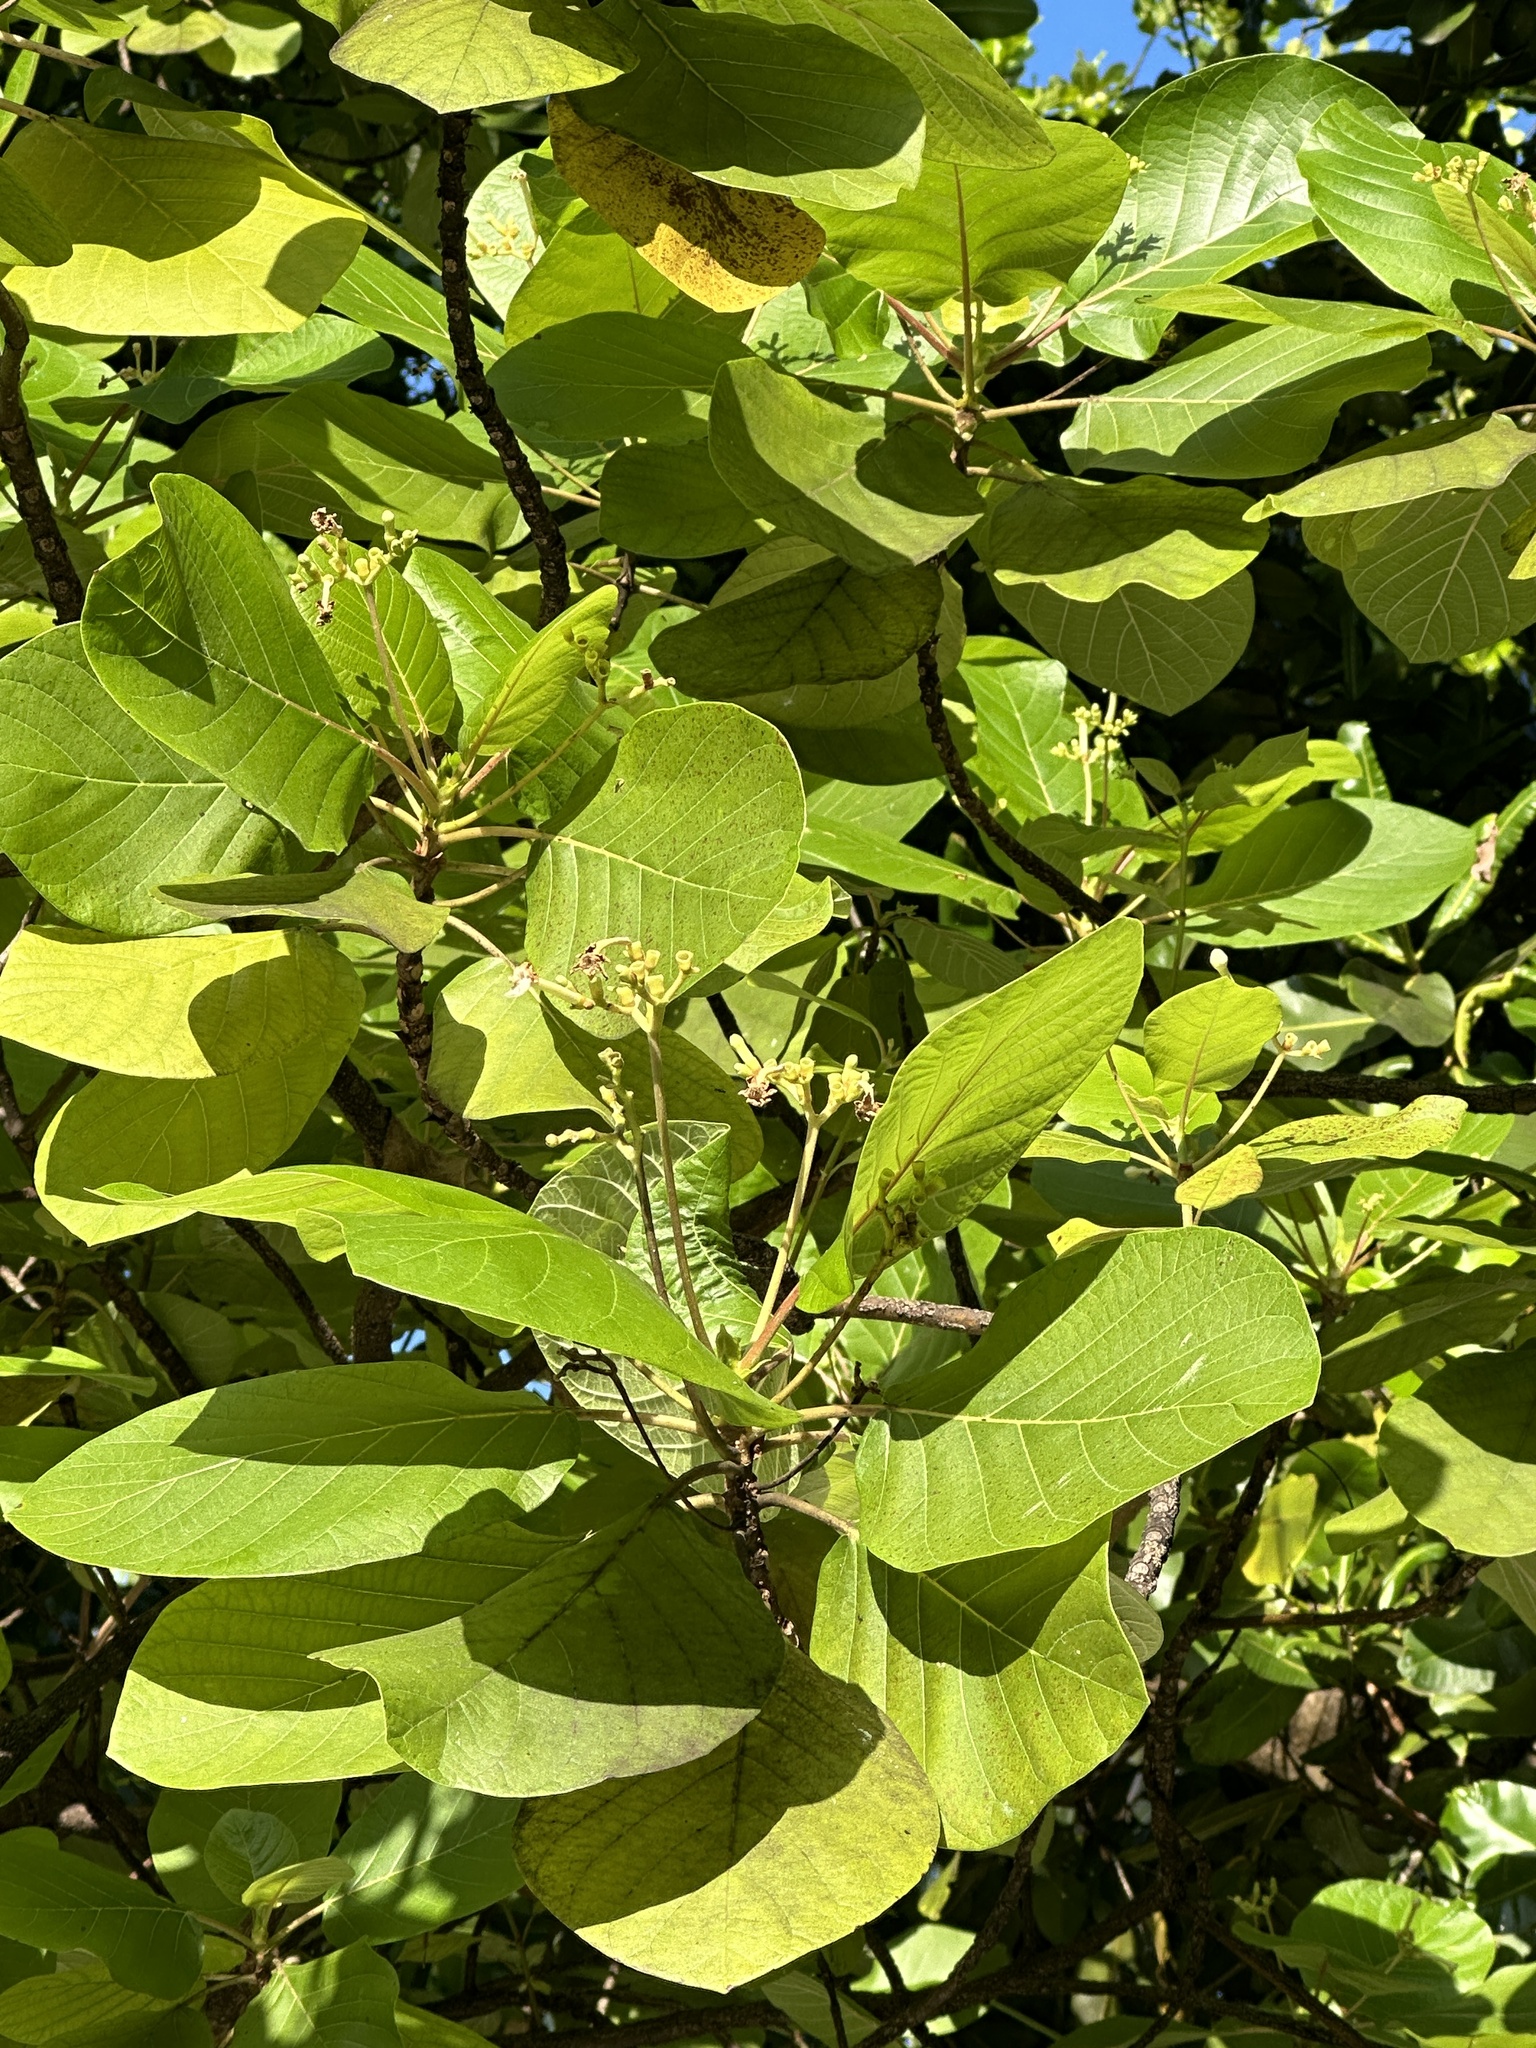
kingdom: Plantae
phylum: Tracheophyta
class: Magnoliopsida
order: Gentianales
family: Rubiaceae
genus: Guettarda
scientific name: Guettarda speciosa
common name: Sea randa
